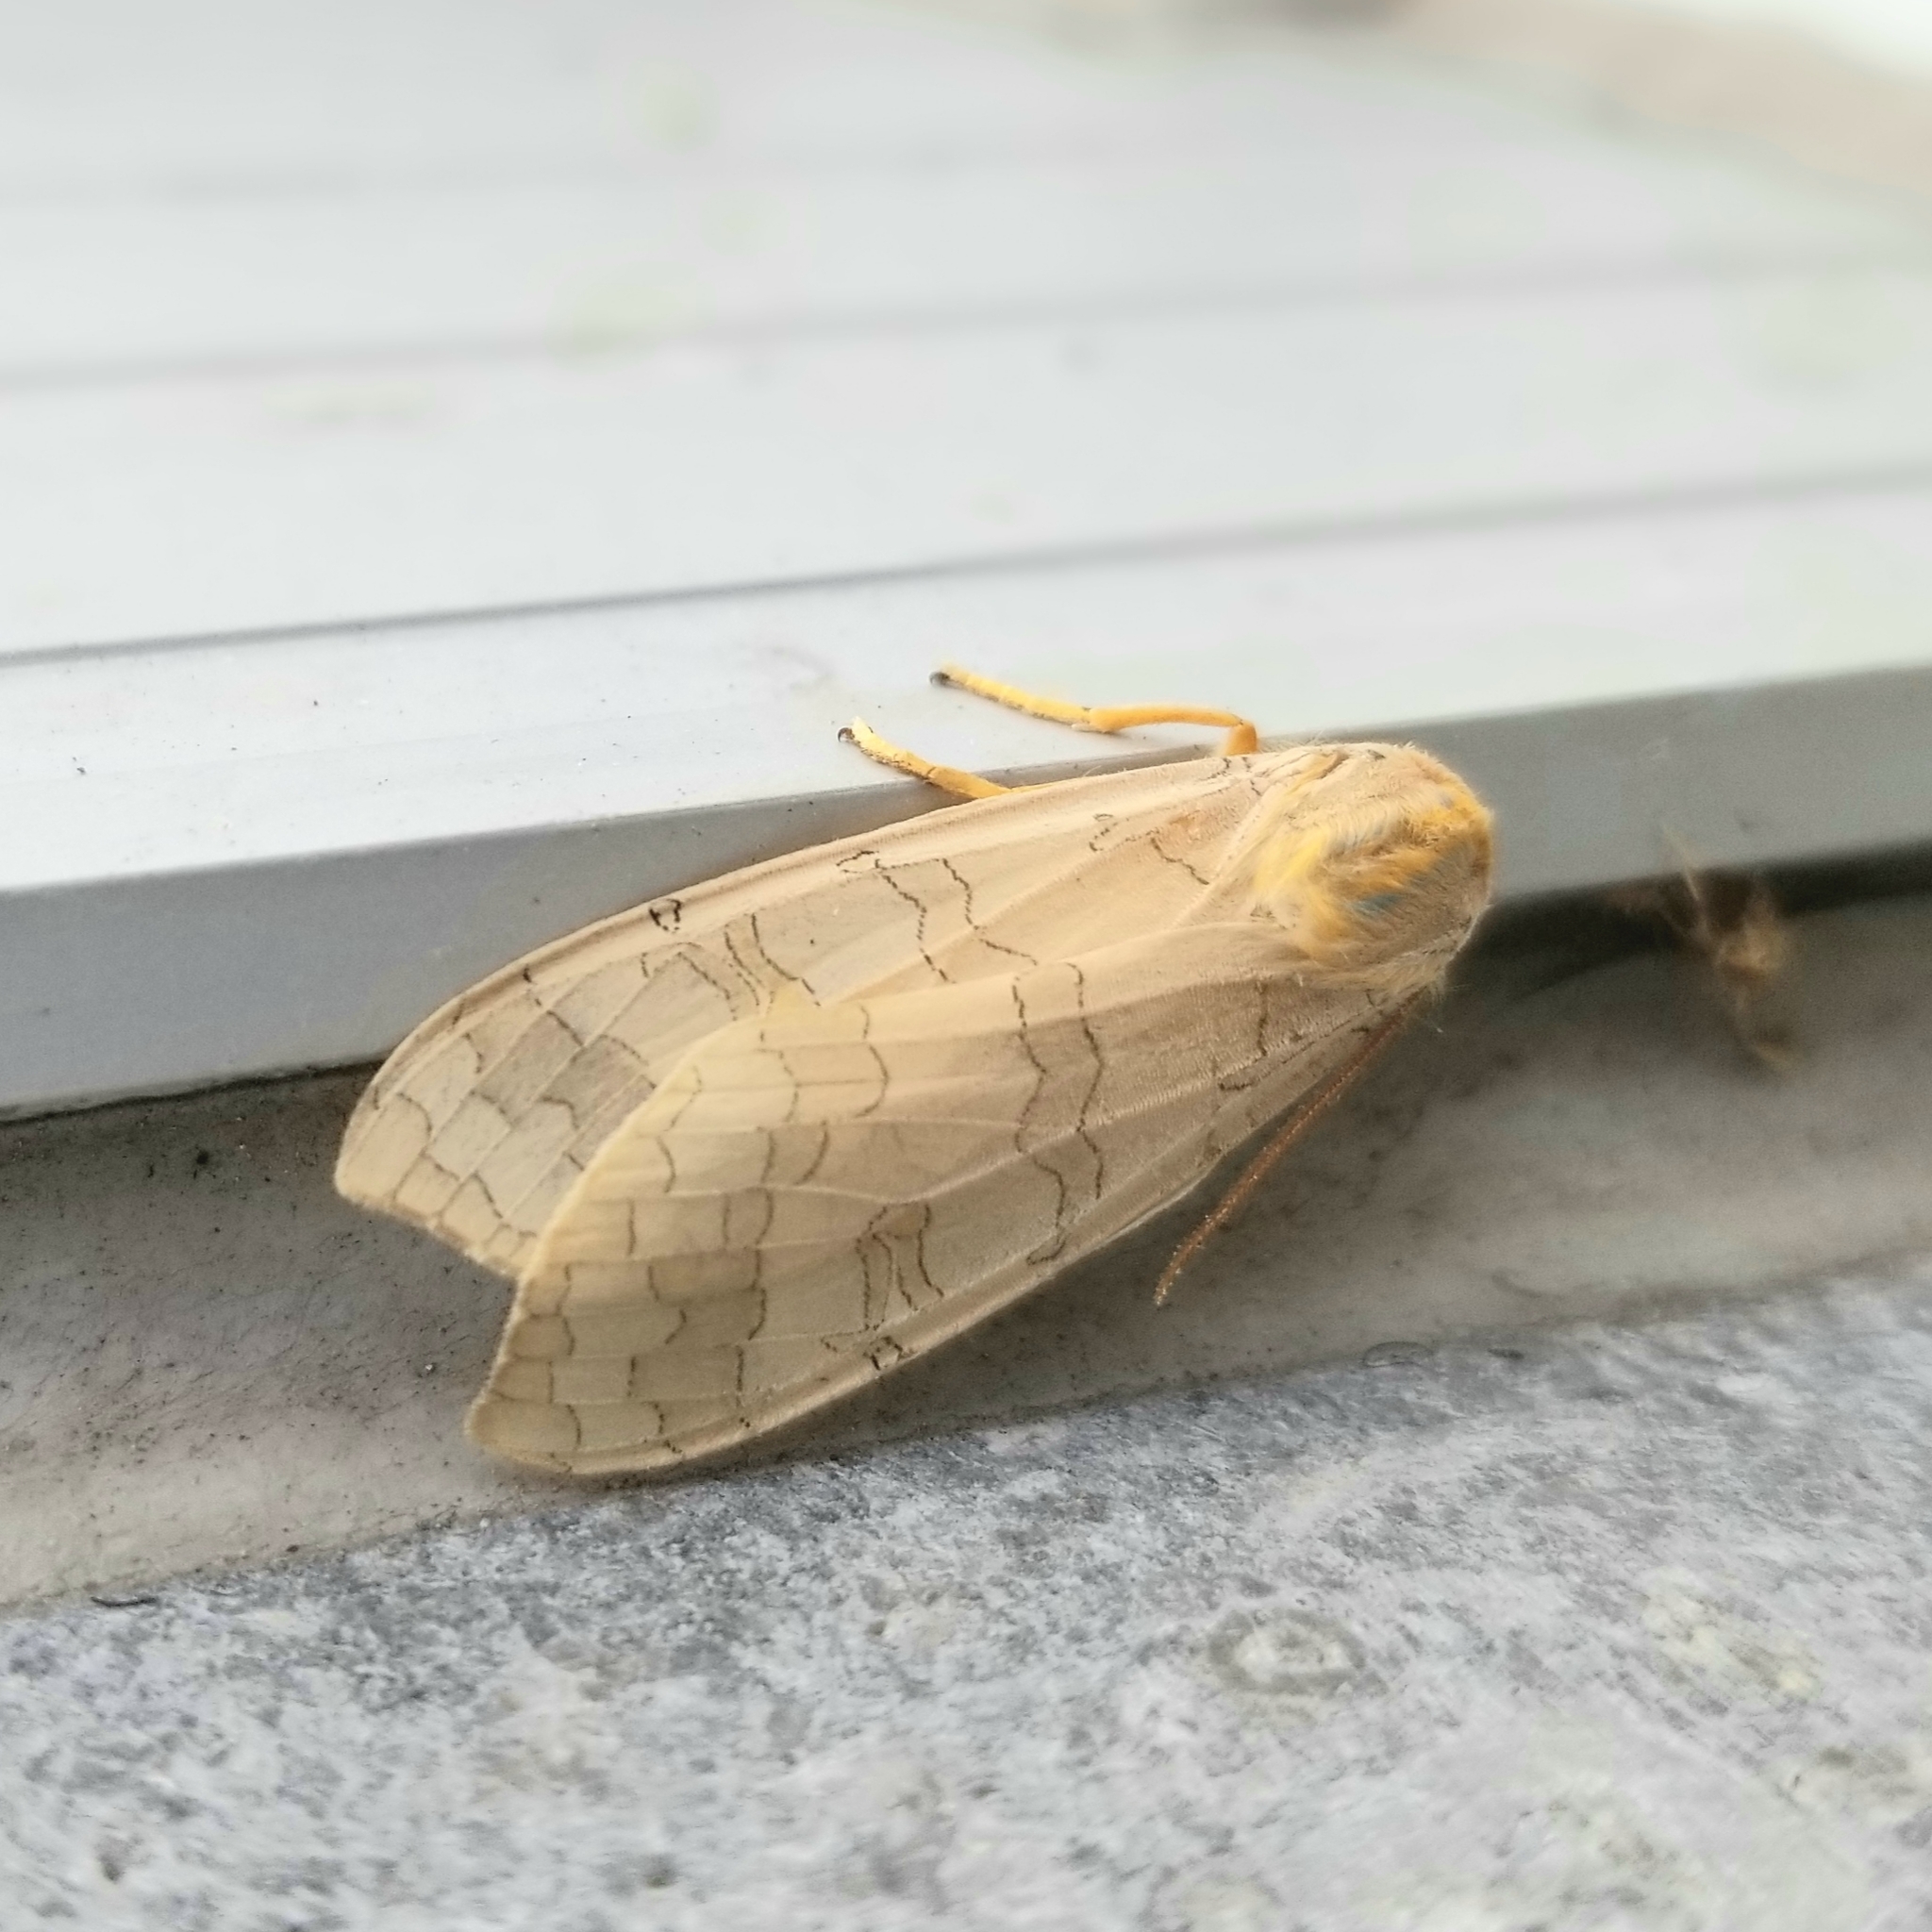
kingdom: Animalia
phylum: Arthropoda
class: Insecta
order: Lepidoptera
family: Erebidae
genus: Halysidota
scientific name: Halysidota tessellaris
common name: Banded tussock moth
